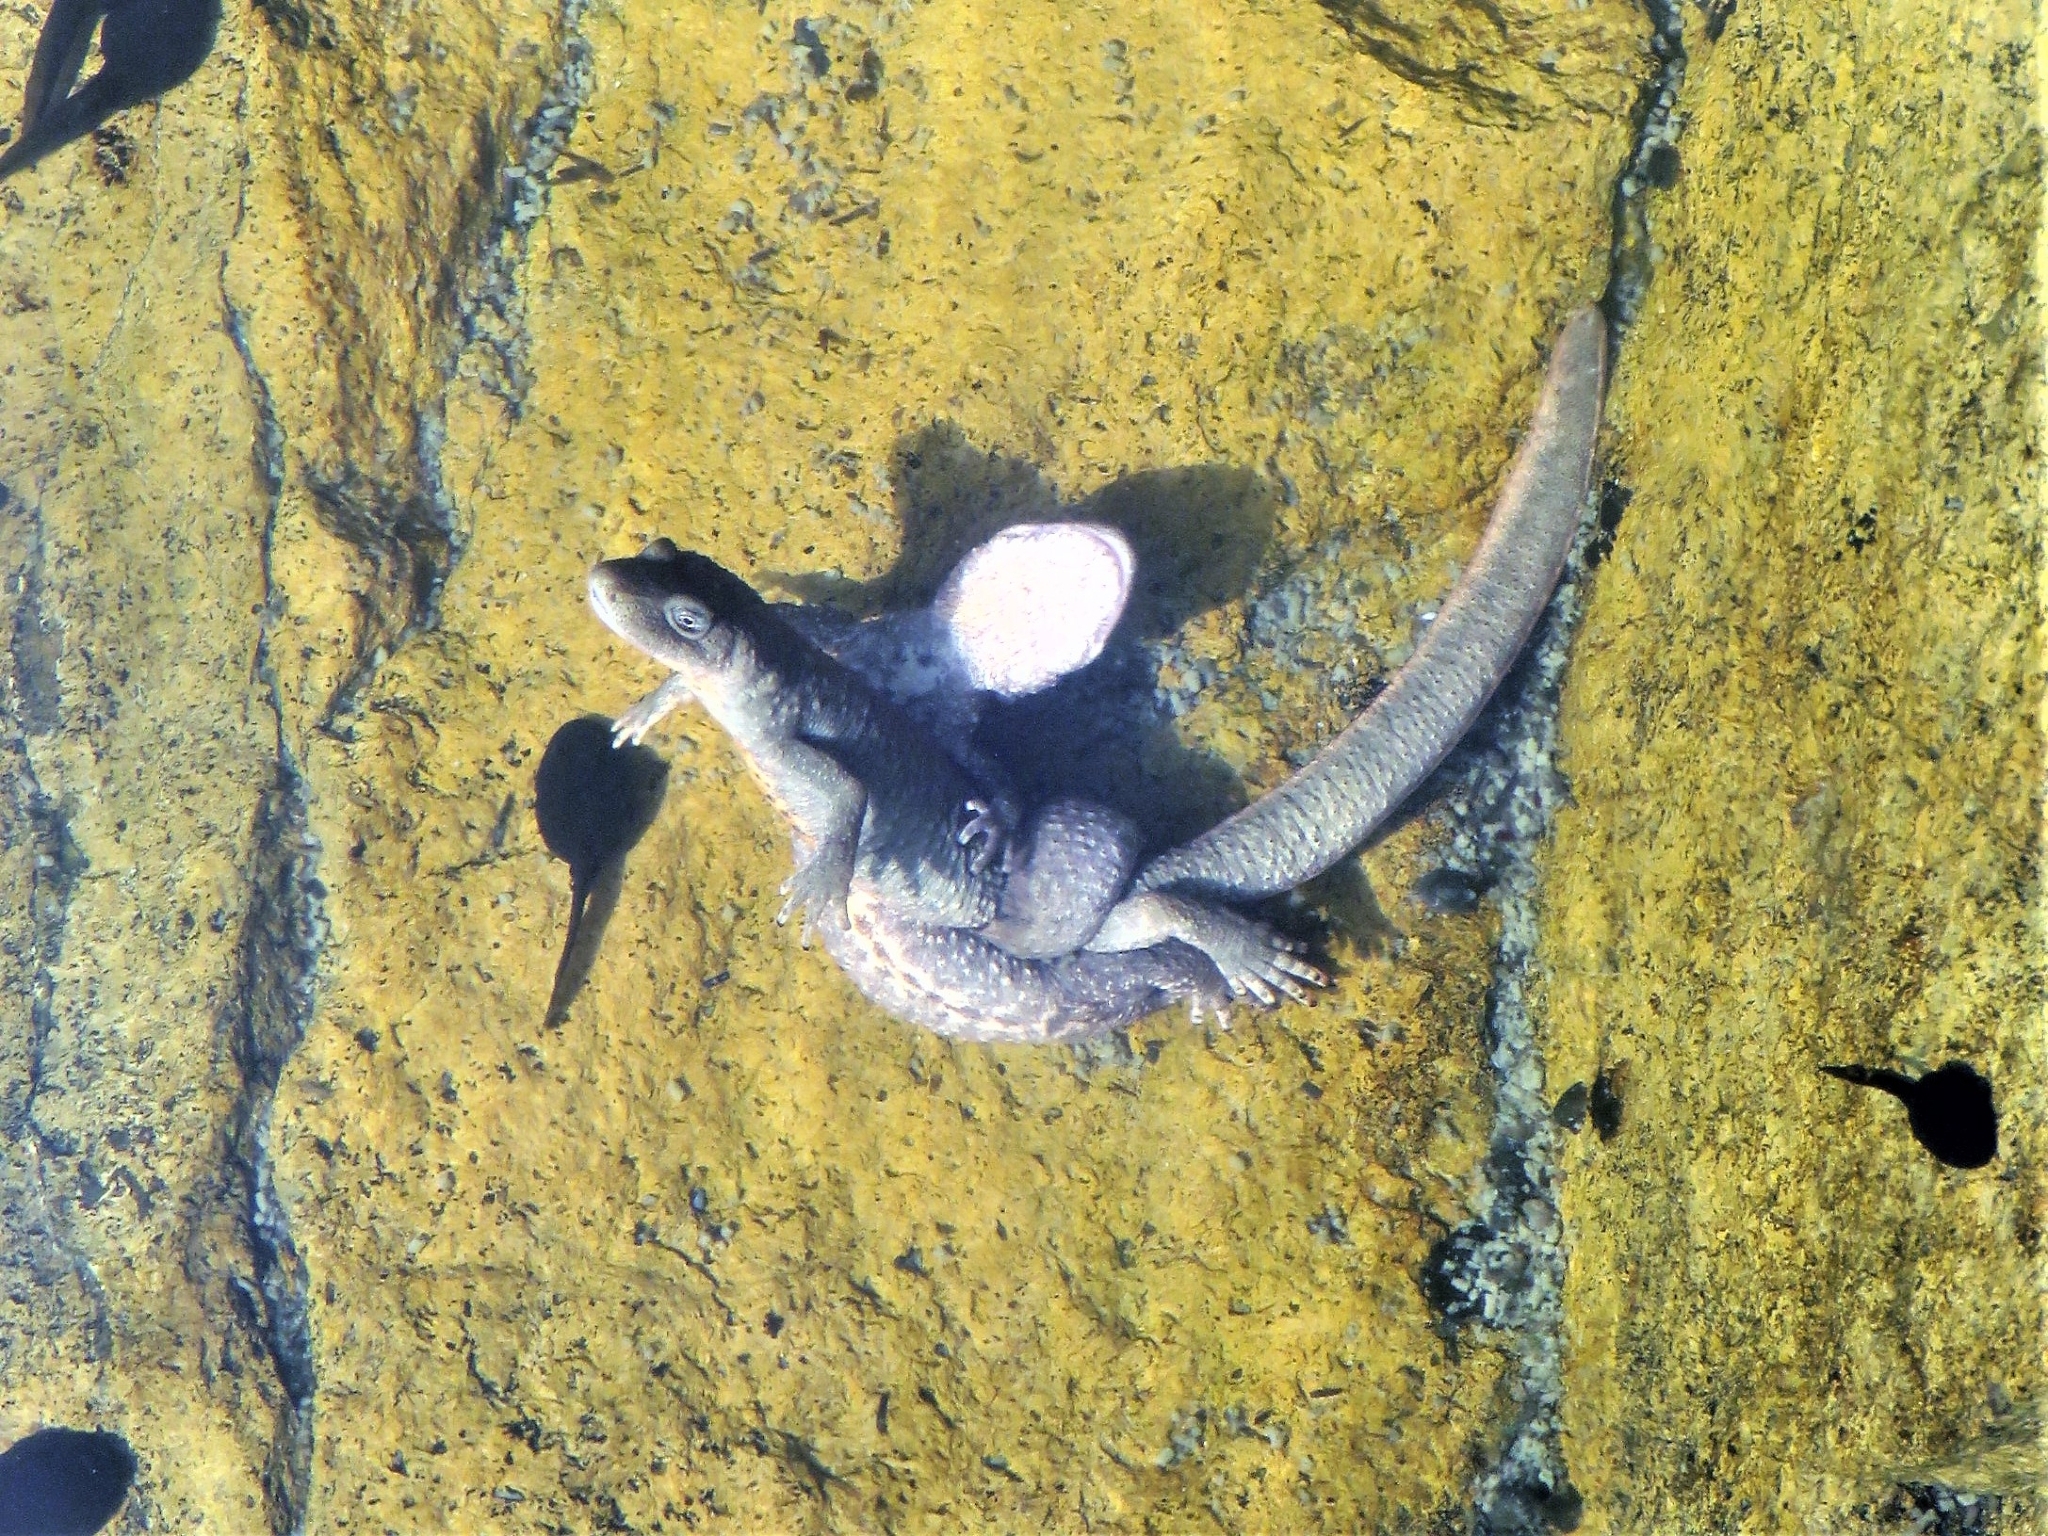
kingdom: Animalia
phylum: Chordata
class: Amphibia
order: Caudata
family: Salamandridae
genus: Calotriton
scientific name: Calotriton asper
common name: Pyrenean brook salamander
